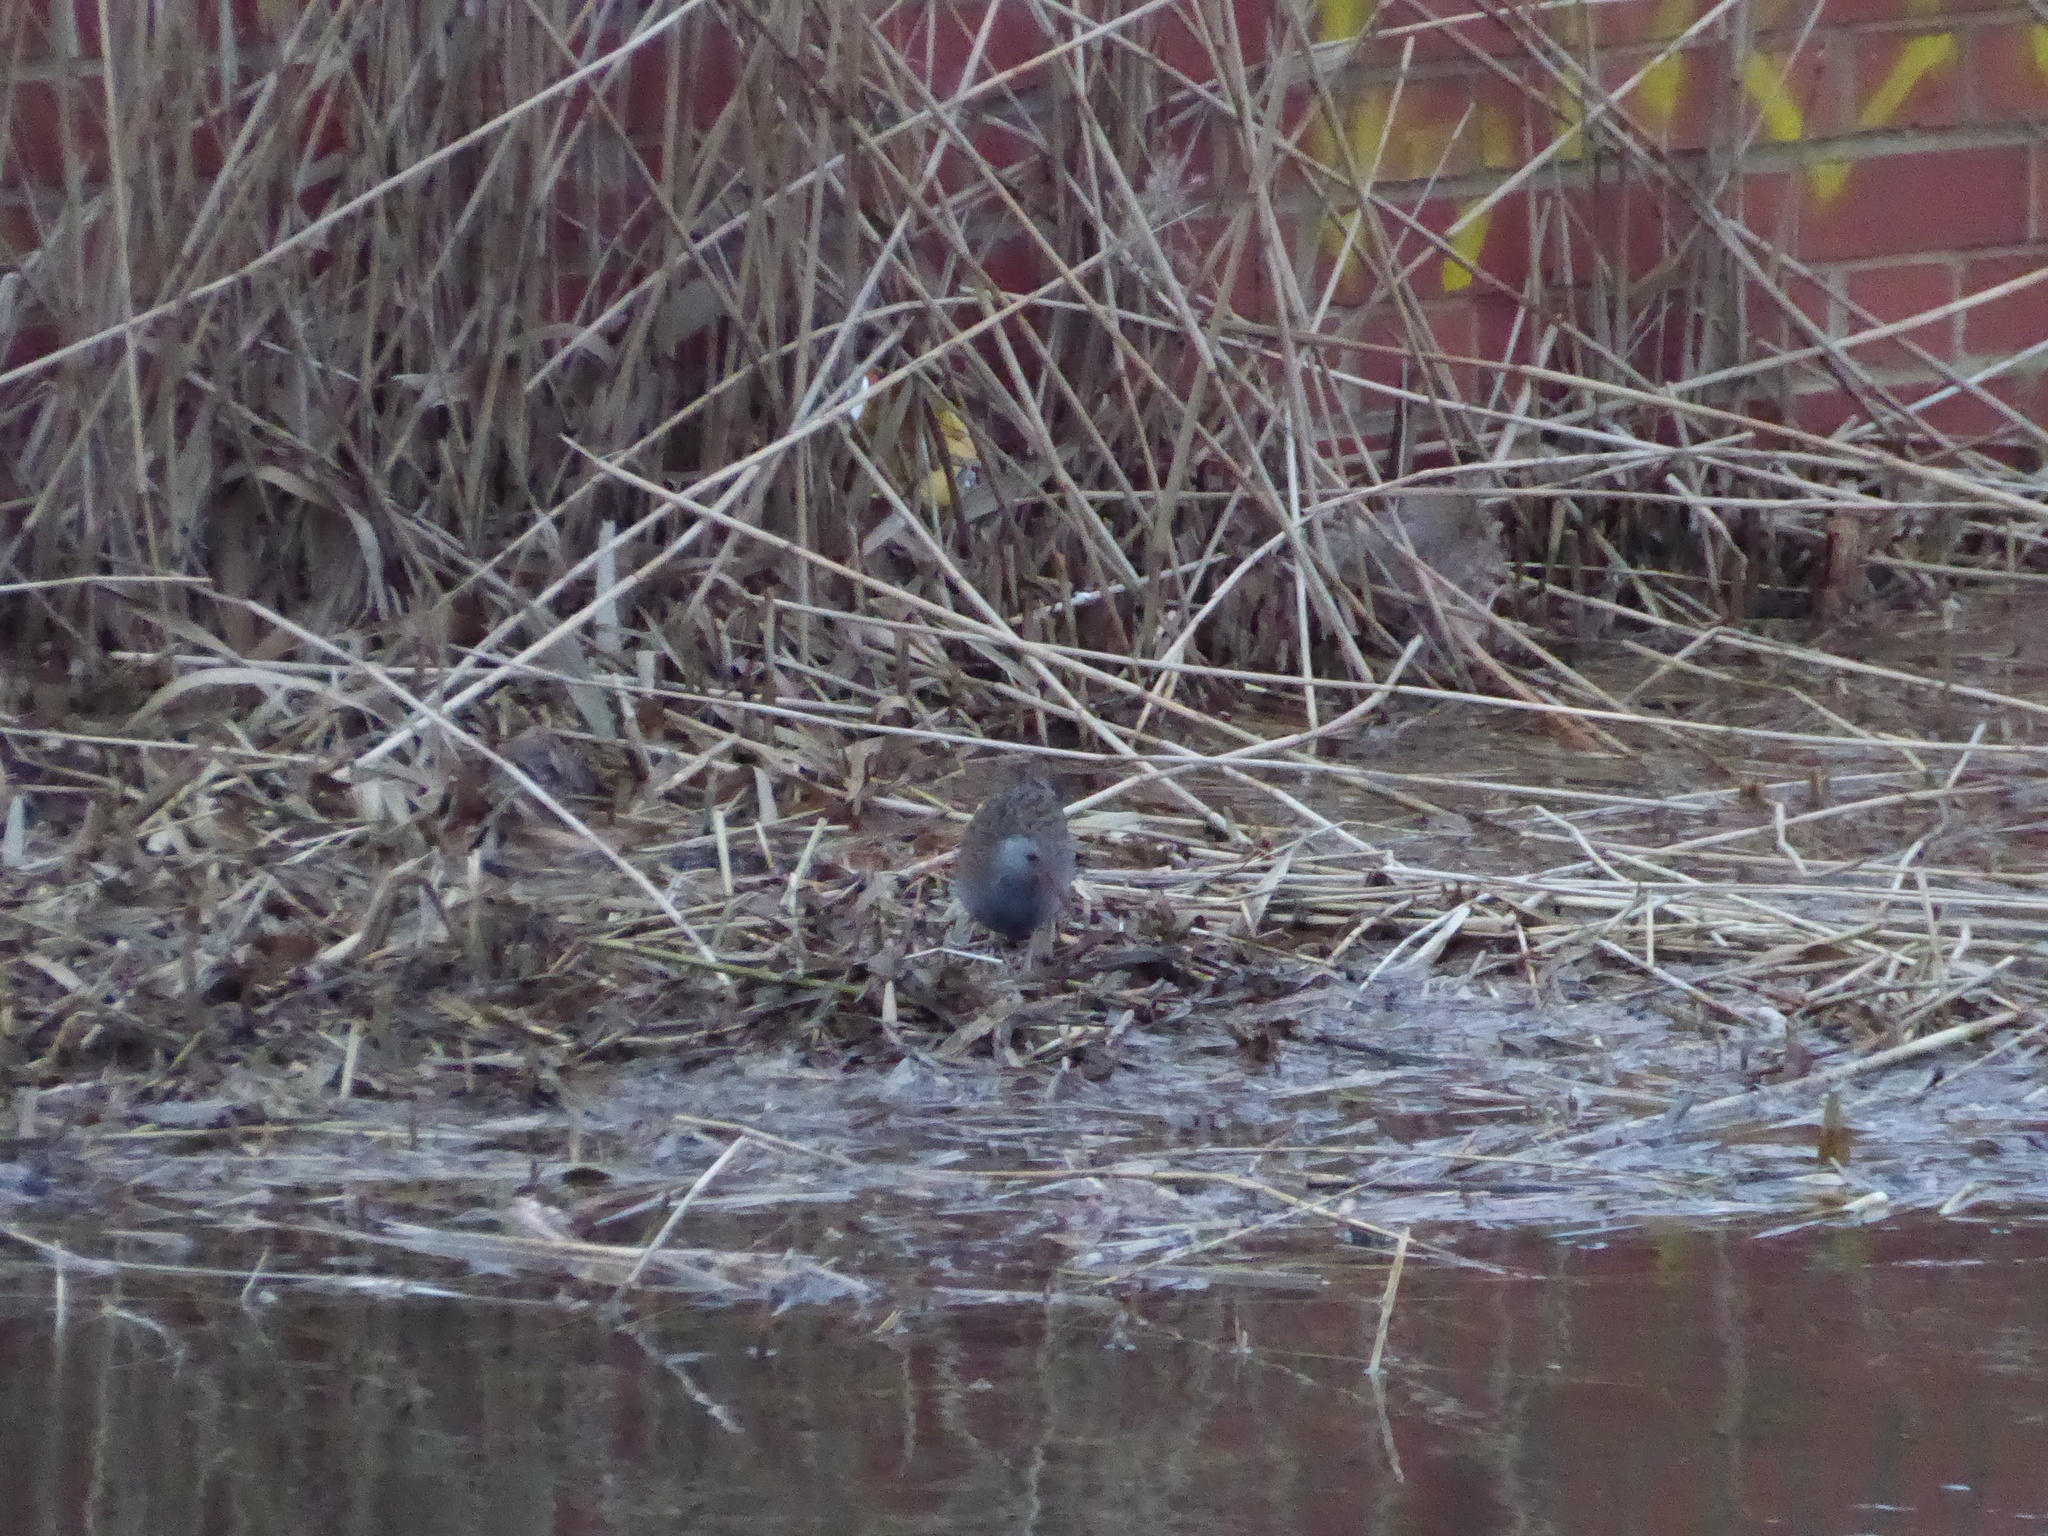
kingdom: Animalia
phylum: Chordata
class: Aves
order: Gruiformes
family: Rallidae
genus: Rallus
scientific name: Rallus aquaticus
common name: Water rail
